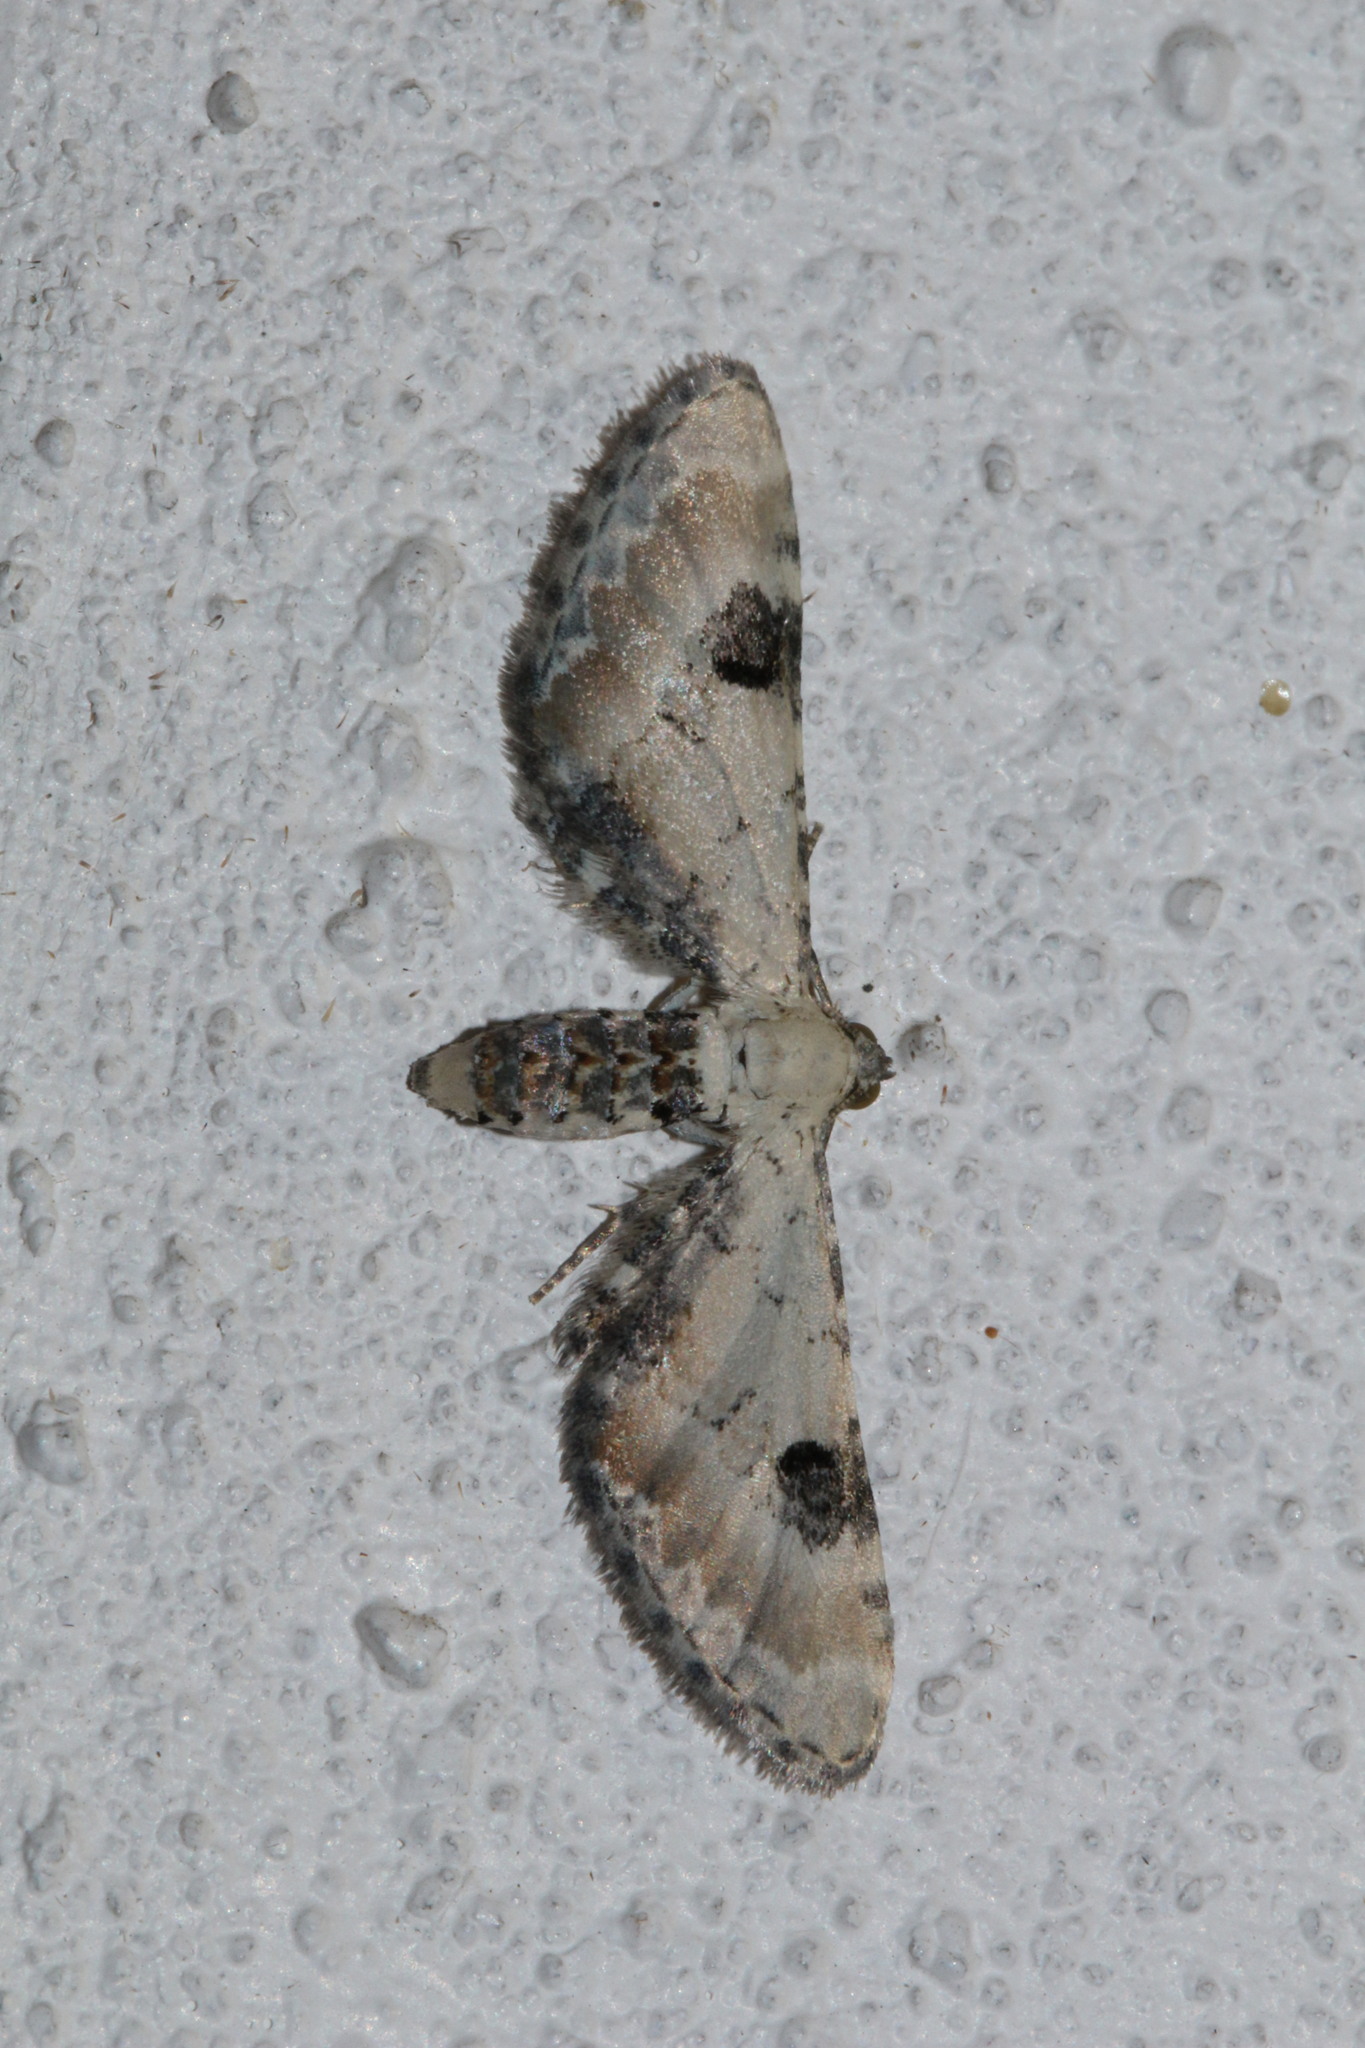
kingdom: Animalia
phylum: Arthropoda
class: Insecta
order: Lepidoptera
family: Geometridae
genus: Eupithecia
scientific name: Eupithecia centaureata
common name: Lime-speck pug
